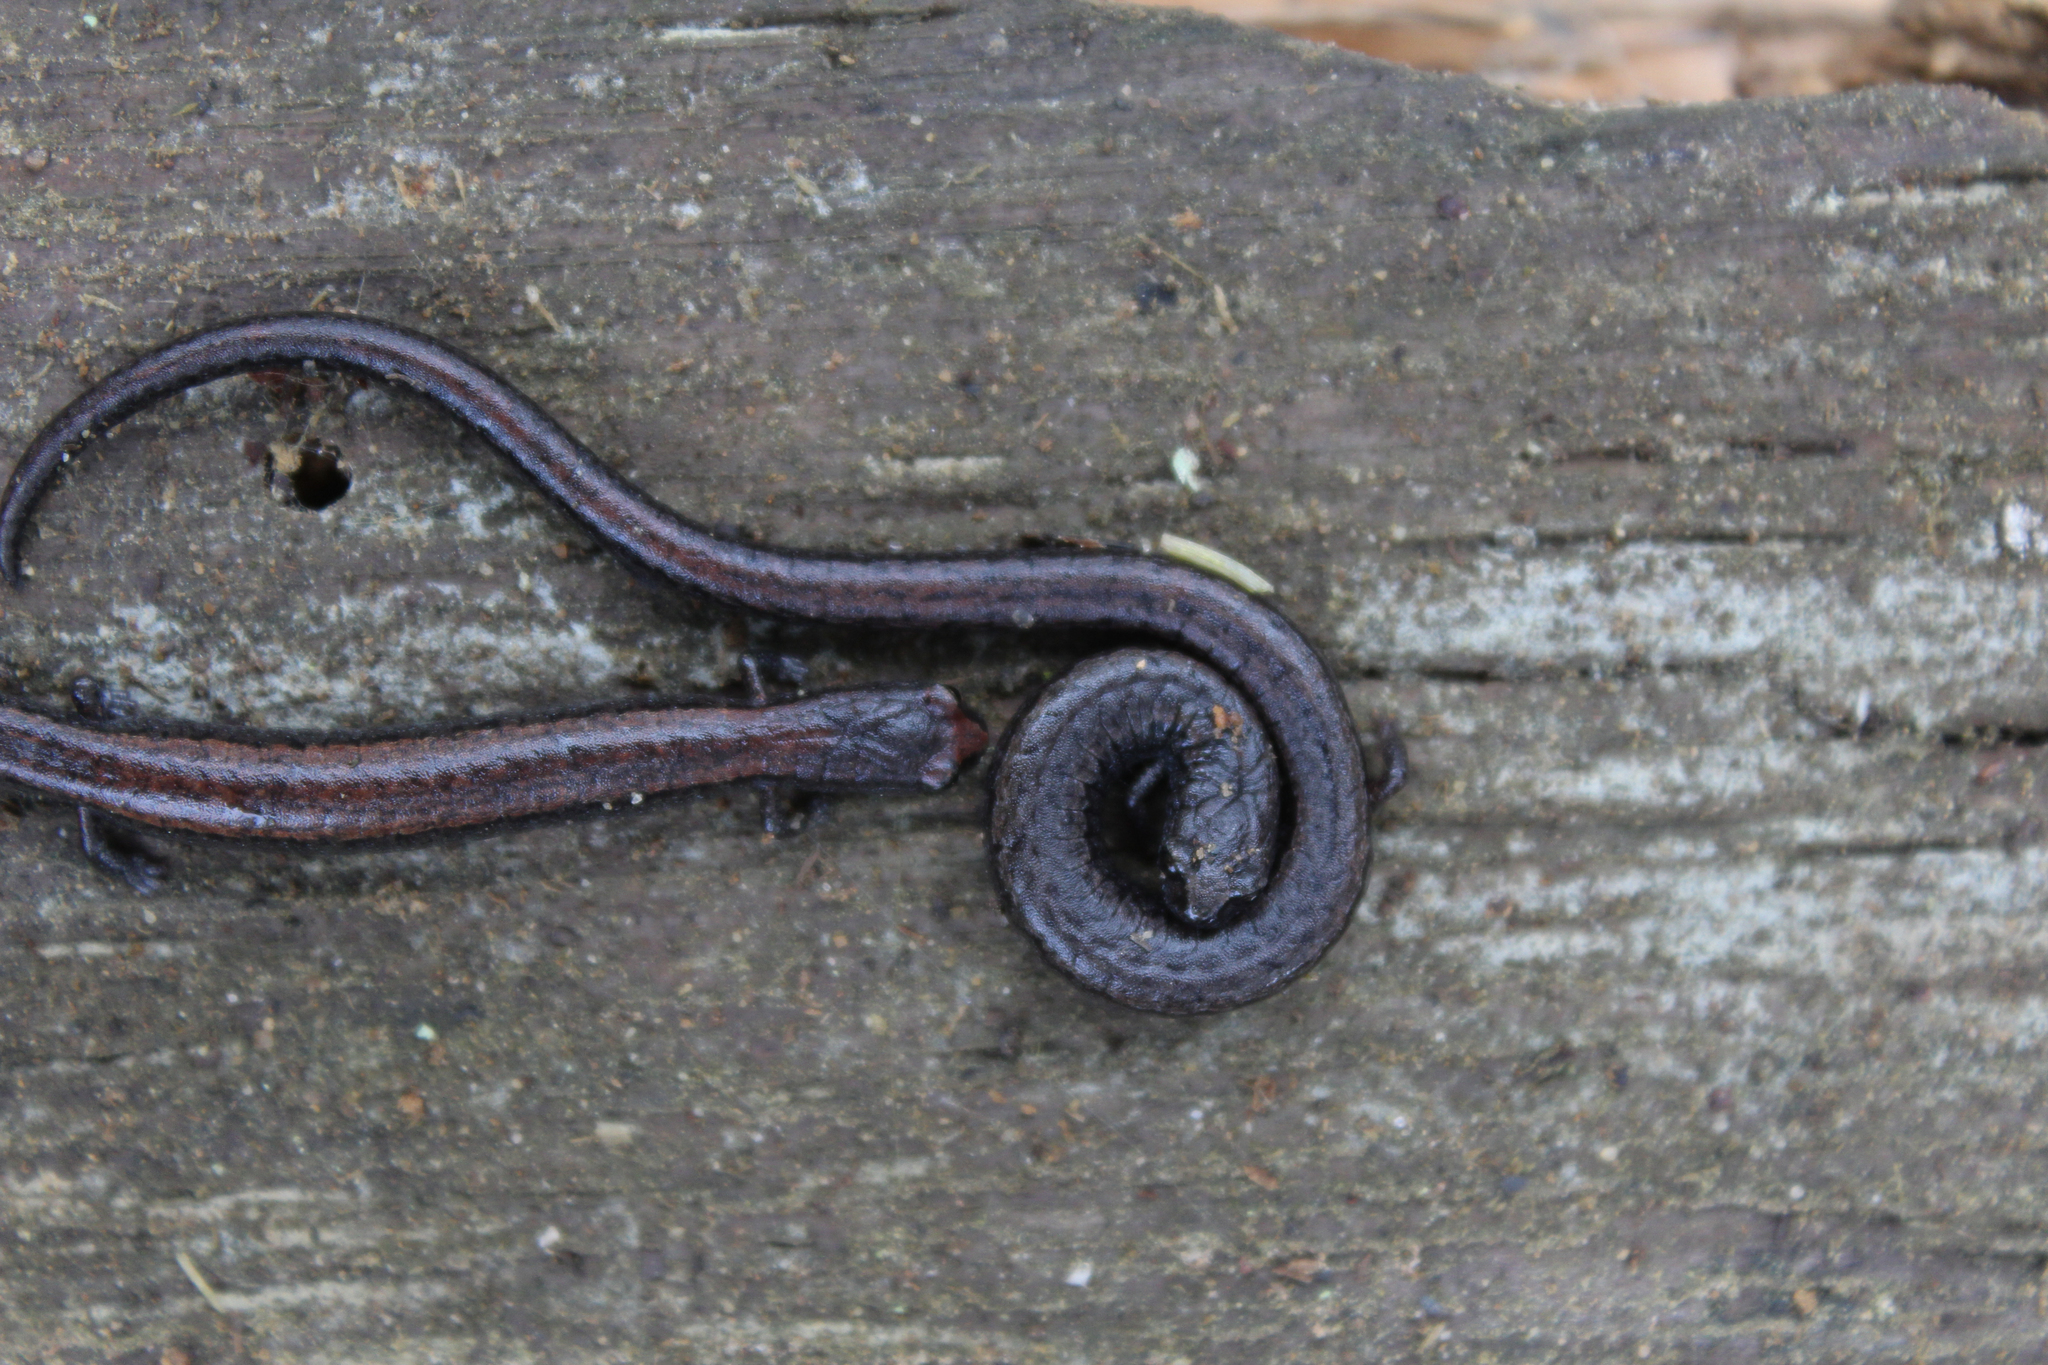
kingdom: Animalia
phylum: Chordata
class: Amphibia
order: Caudata
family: Plethodontidae
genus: Batrachoseps
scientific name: Batrachoseps attenuatus
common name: California slender salamander
